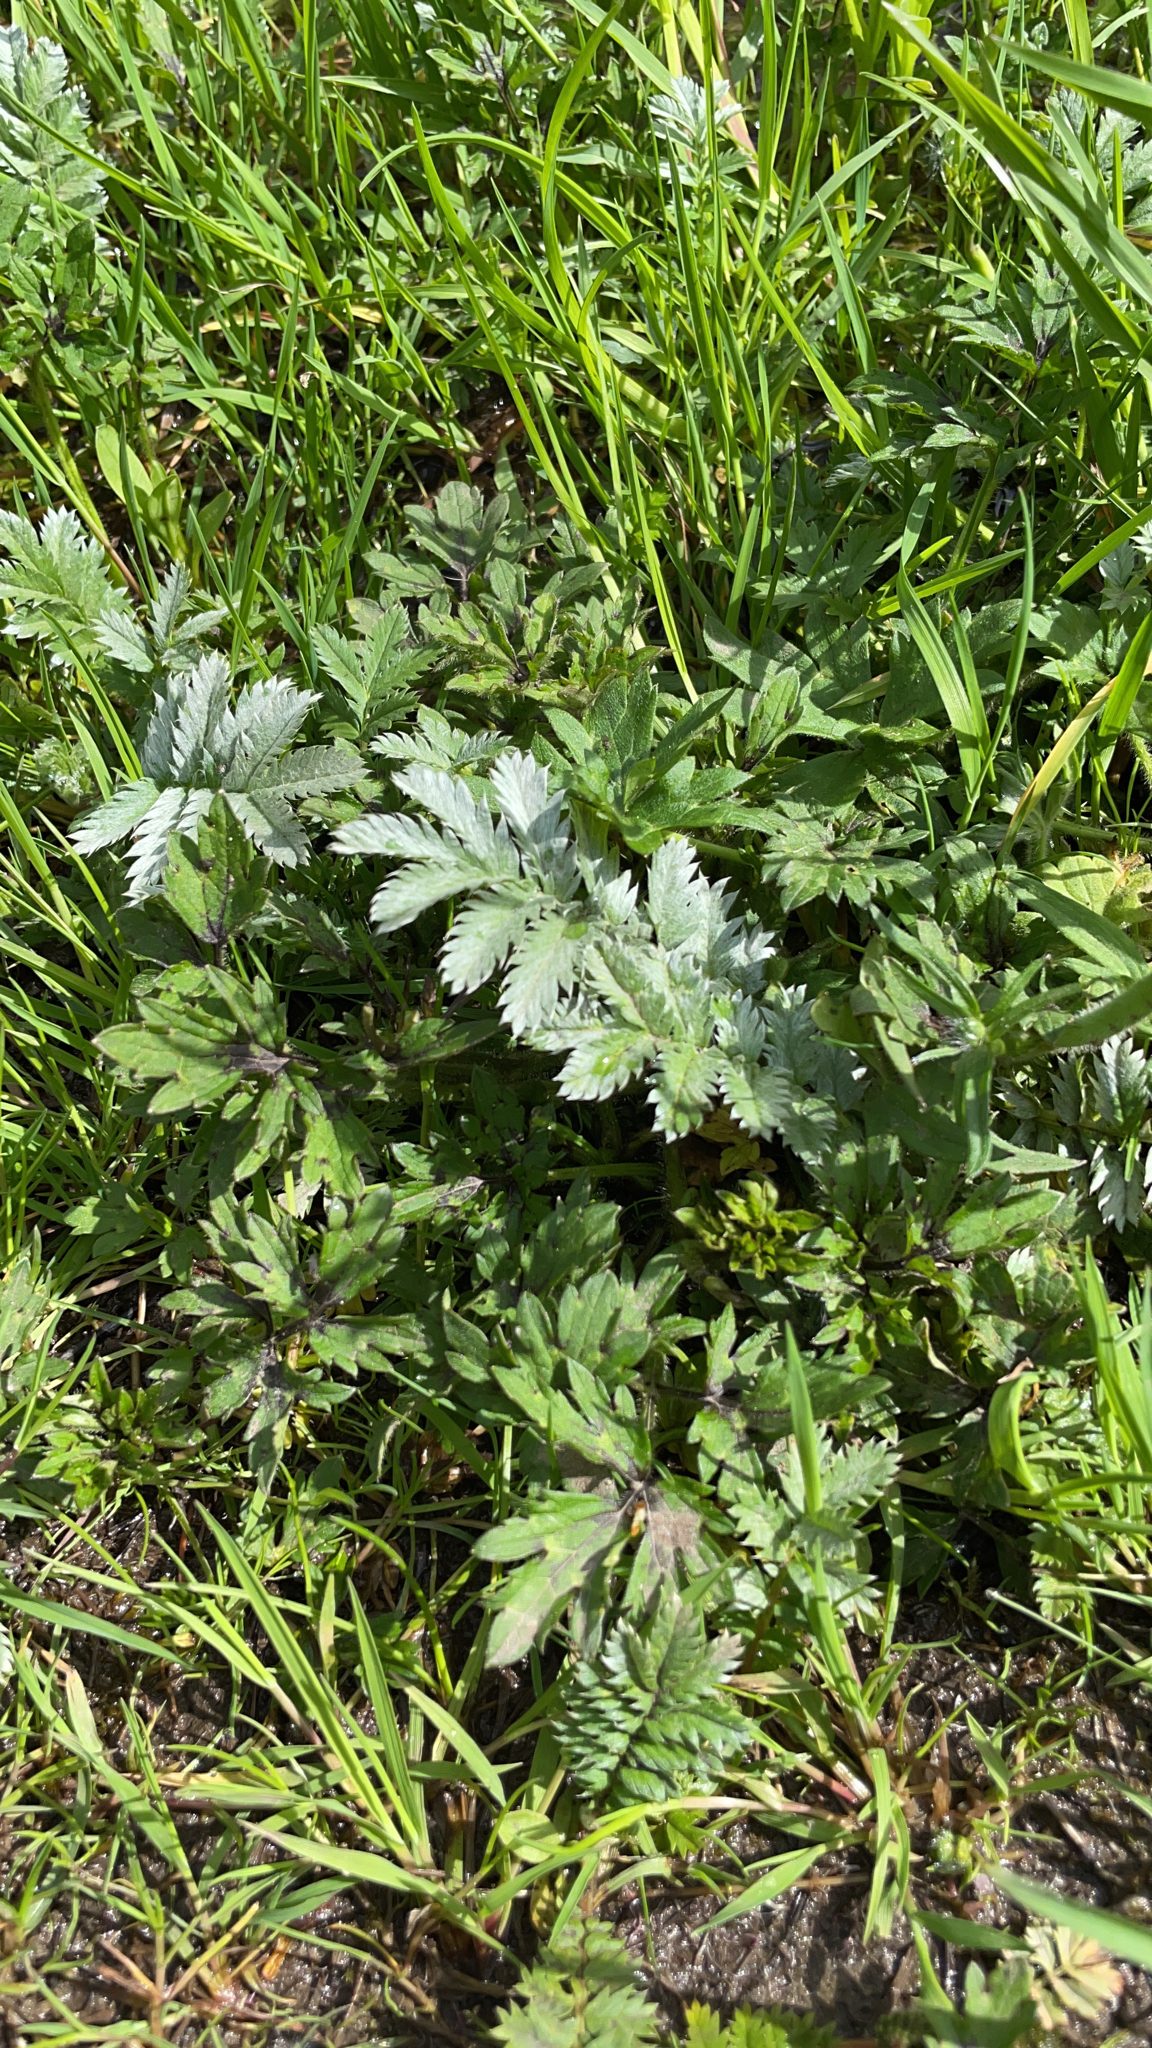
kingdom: Plantae
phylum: Tracheophyta
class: Magnoliopsida
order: Rosales
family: Rosaceae
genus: Argentina
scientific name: Argentina anserina
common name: Common silverweed
